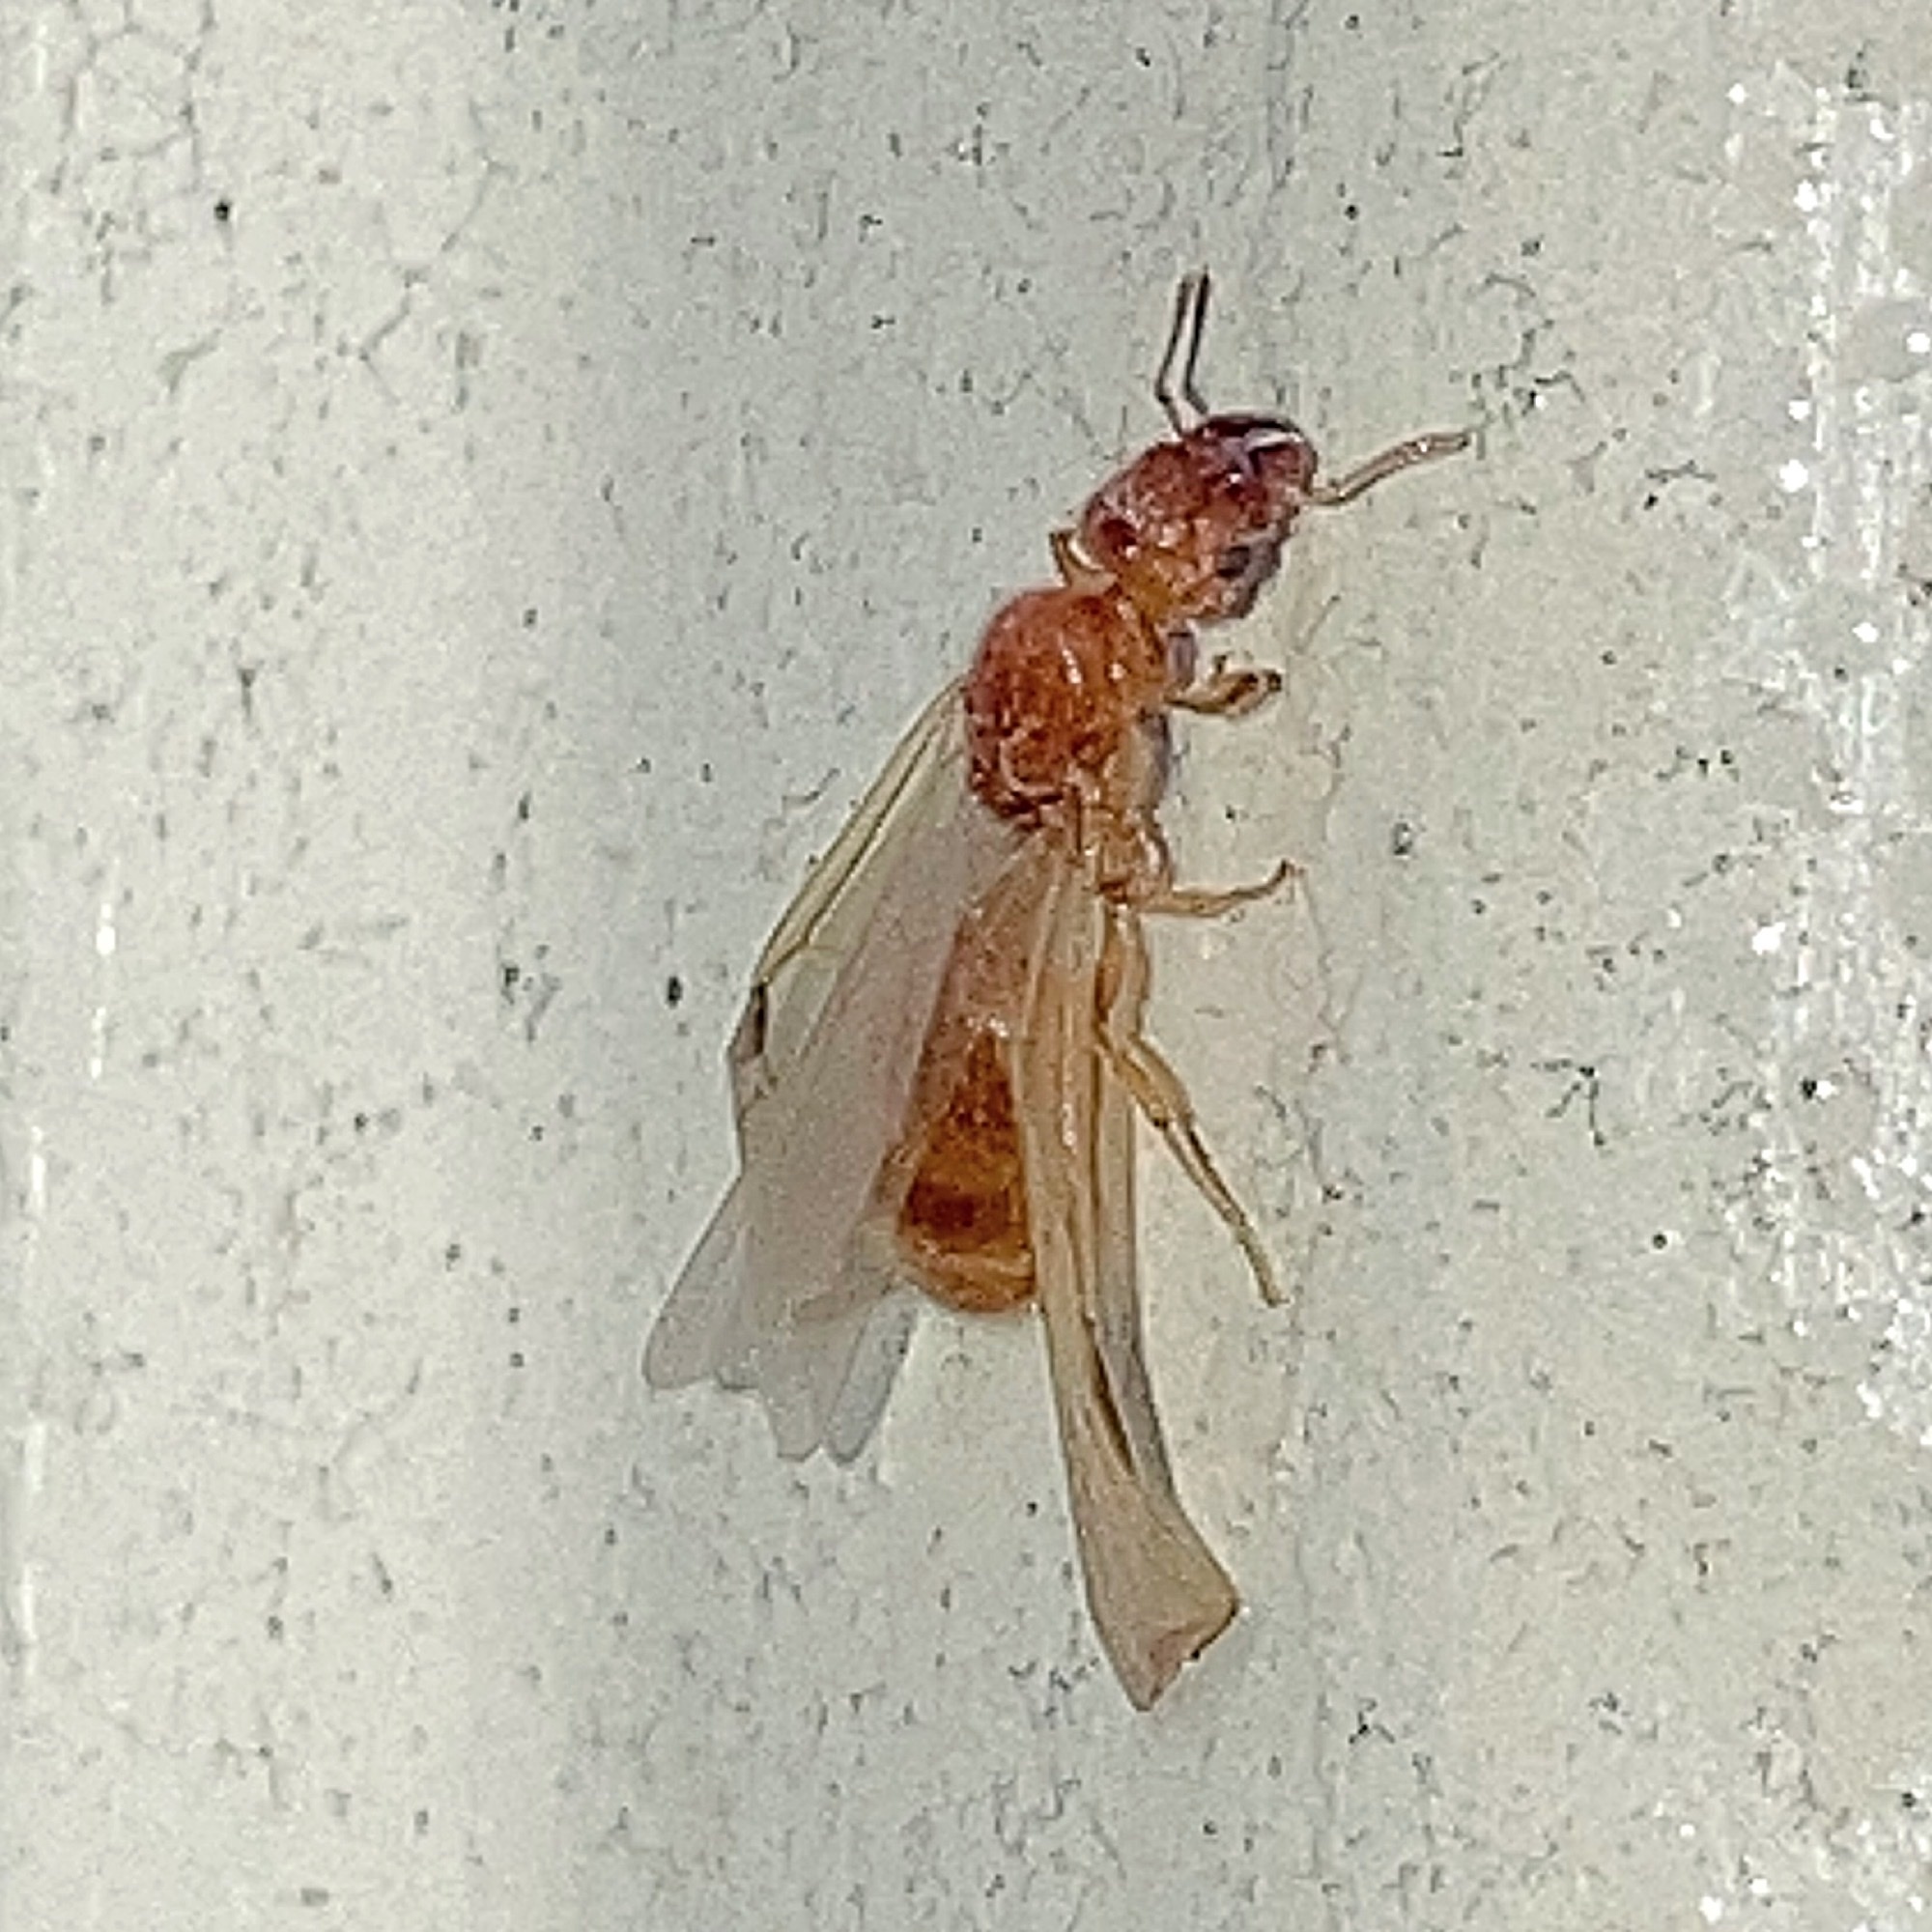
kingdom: Animalia
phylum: Arthropoda
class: Insecta
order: Hymenoptera
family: Formicidae
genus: Pheidole
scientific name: Pheidole tysoni
